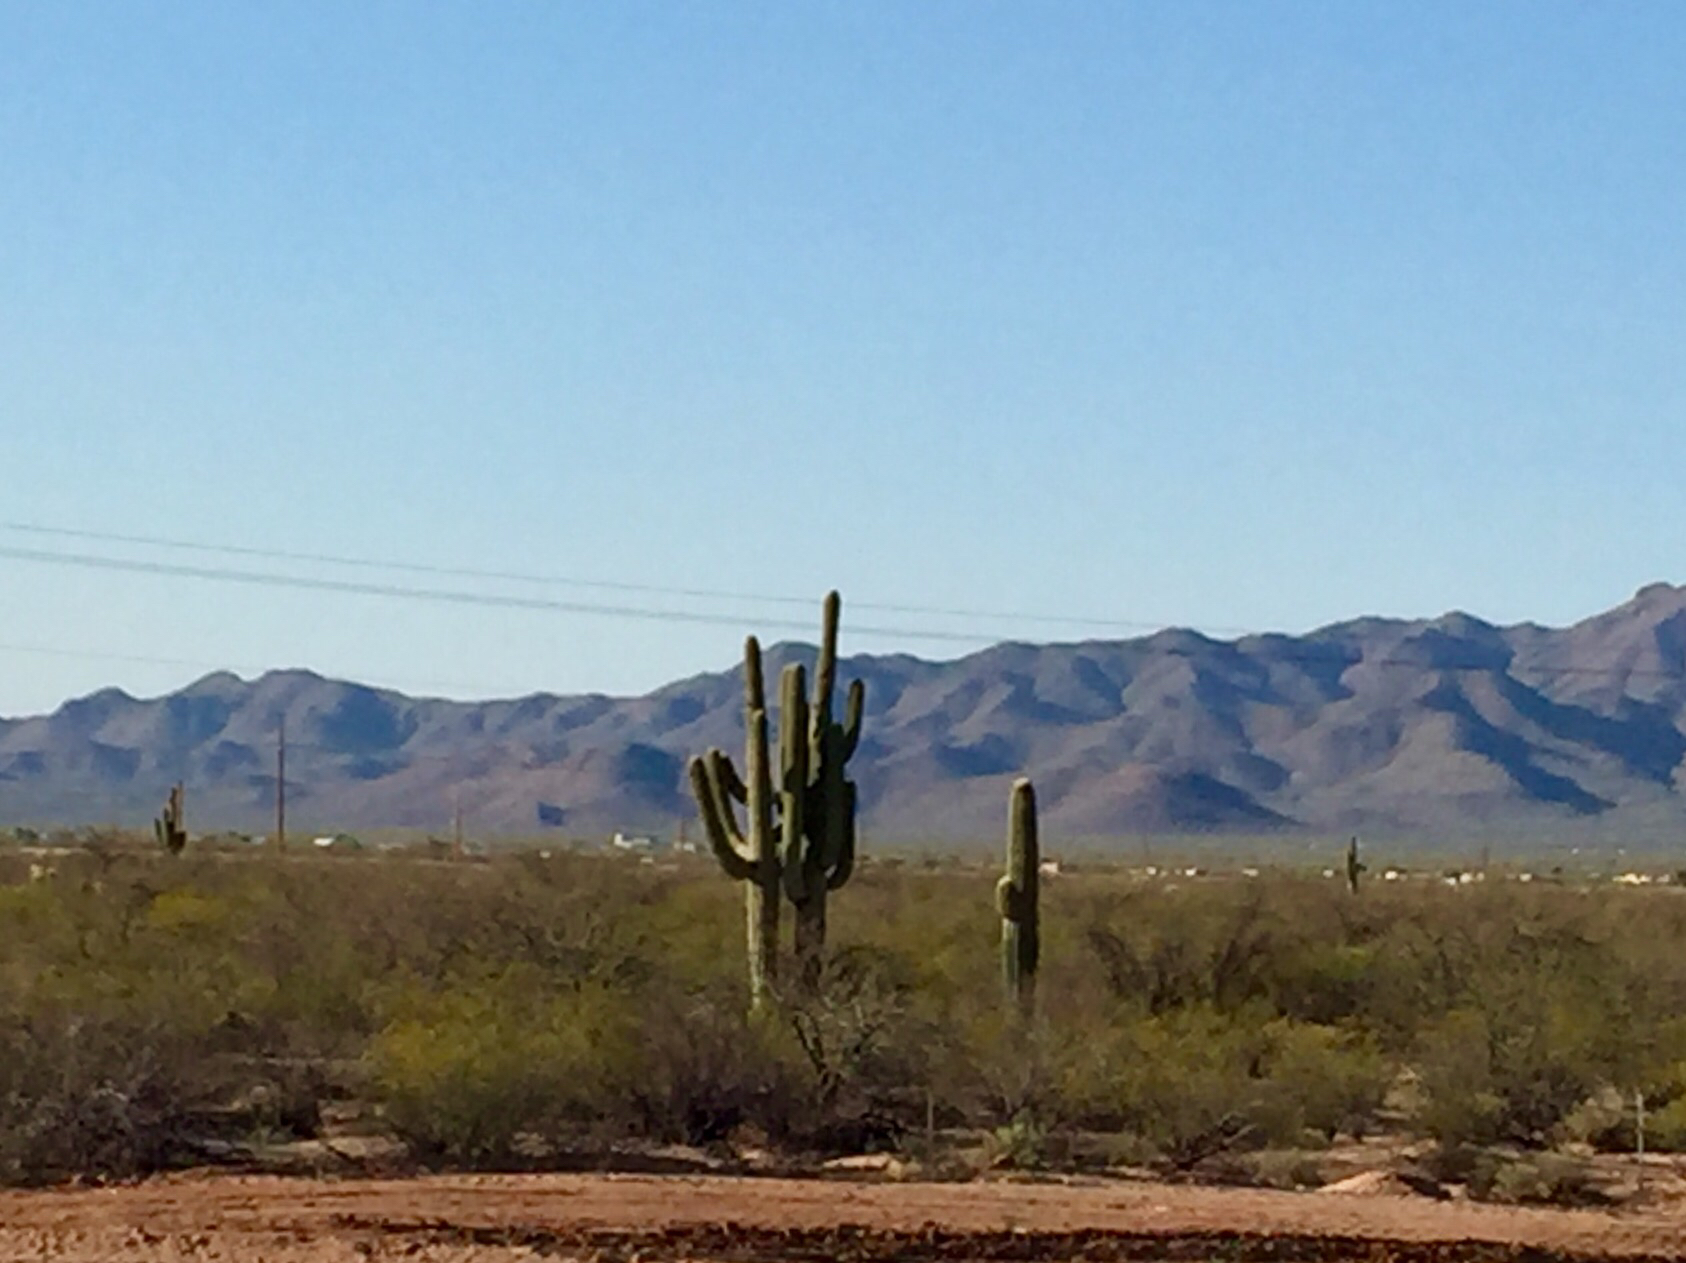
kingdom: Plantae
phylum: Tracheophyta
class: Magnoliopsida
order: Caryophyllales
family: Cactaceae
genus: Carnegiea
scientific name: Carnegiea gigantea
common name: Saguaro
